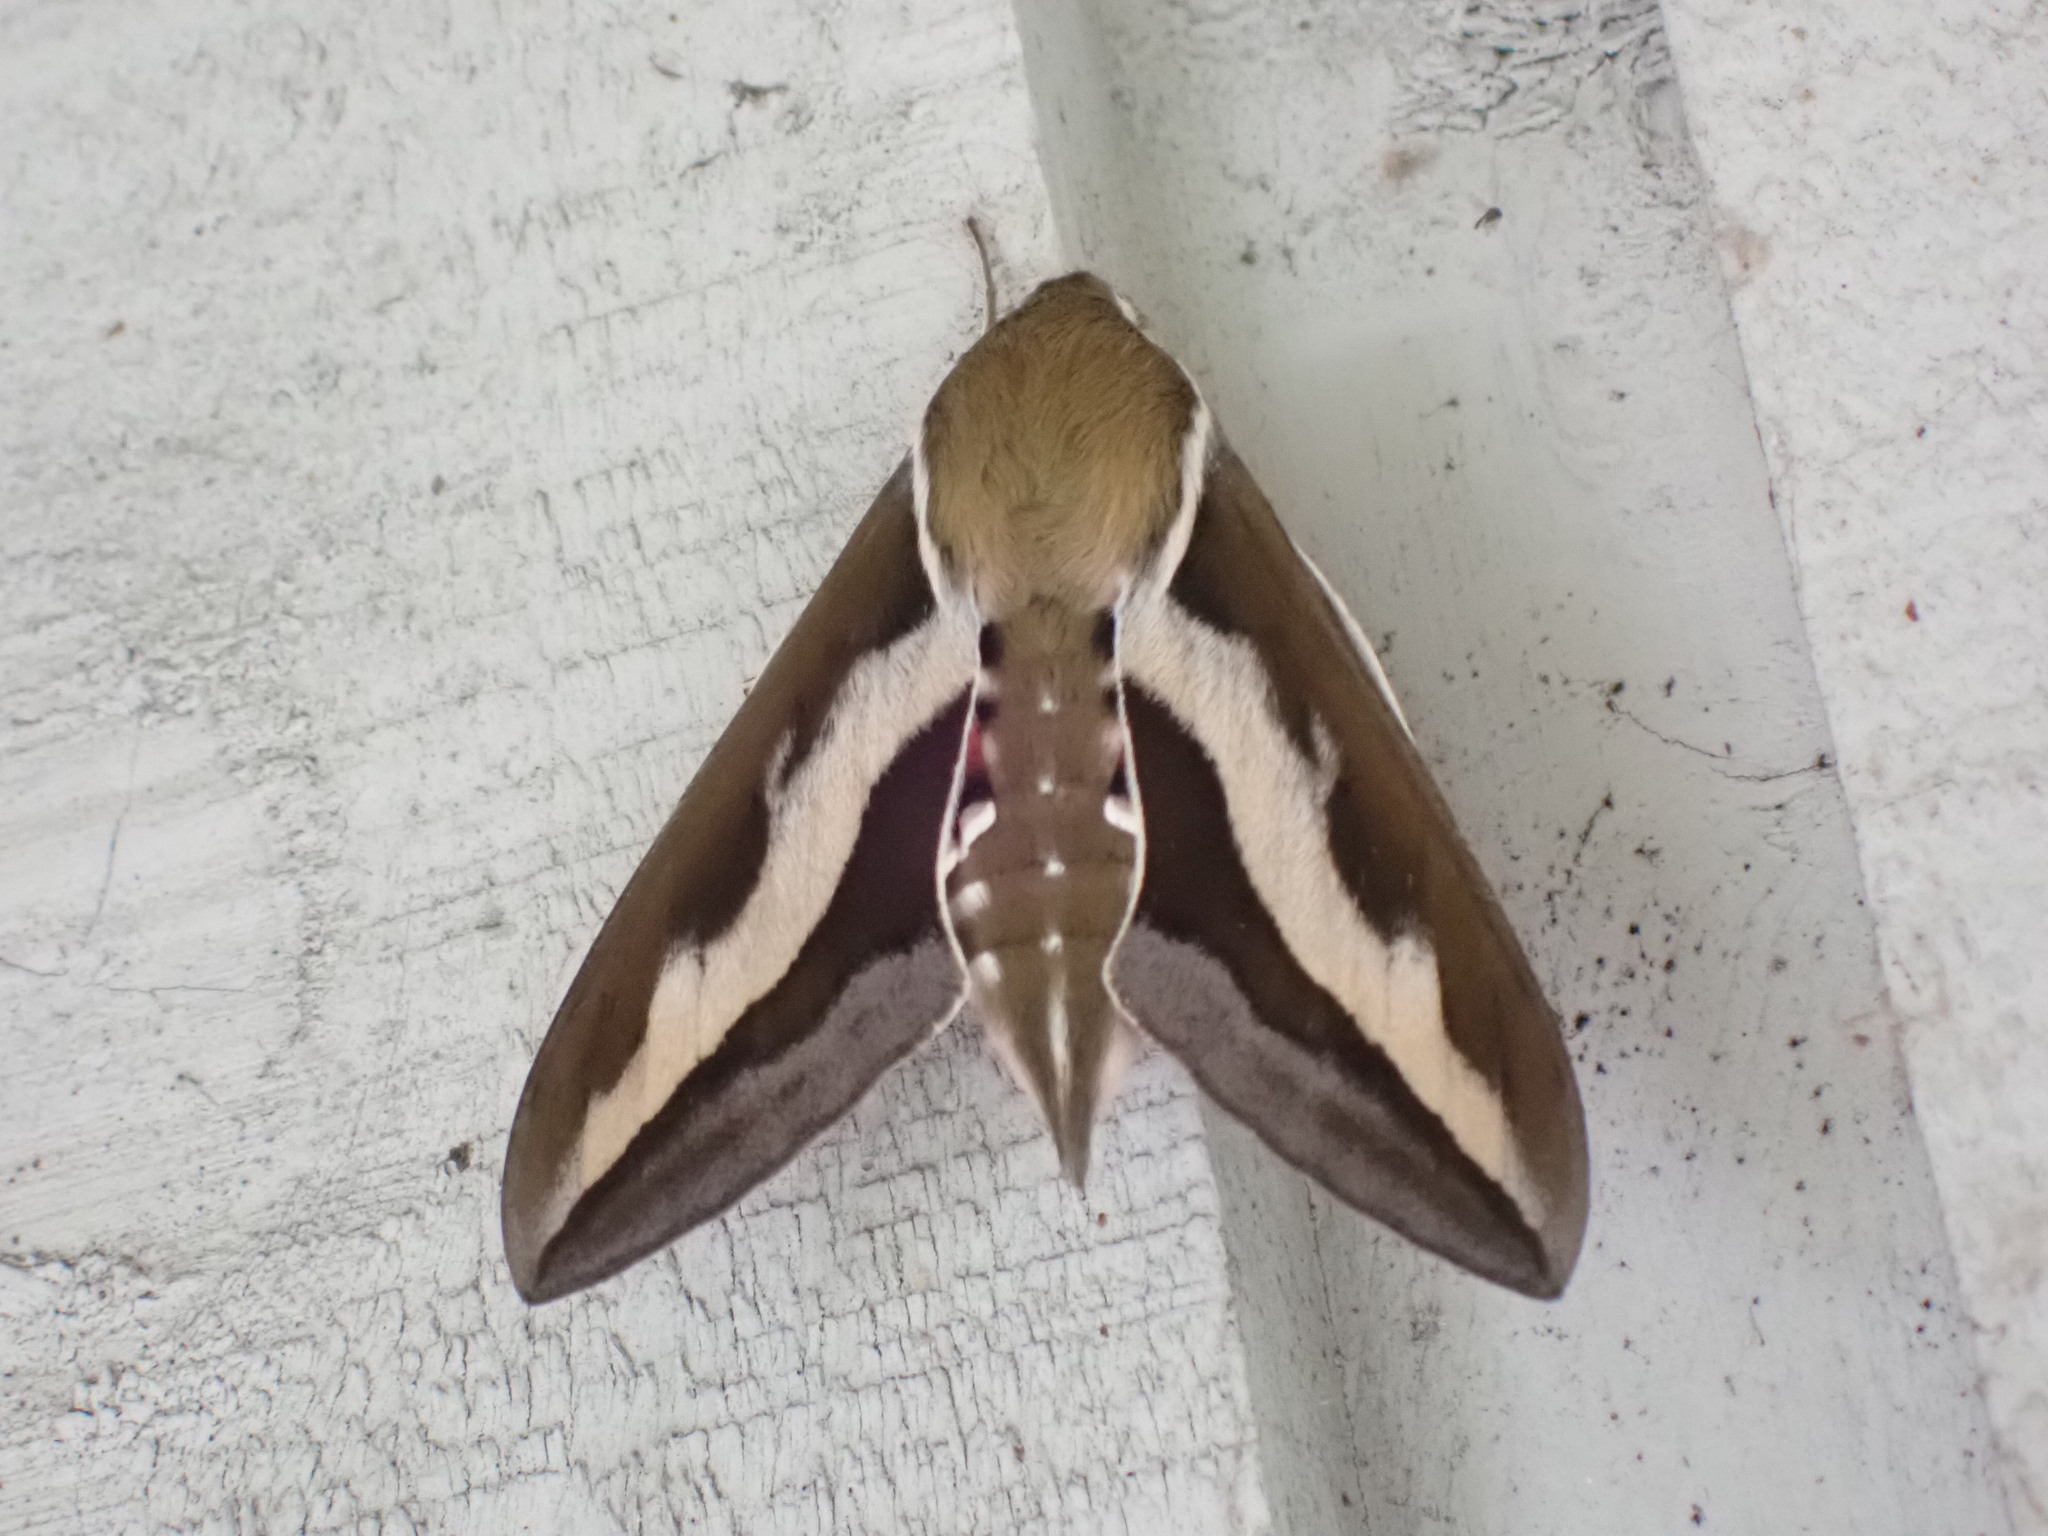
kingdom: Animalia
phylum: Arthropoda
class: Insecta
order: Lepidoptera
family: Sphingidae
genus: Hyles
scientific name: Hyles gallii
